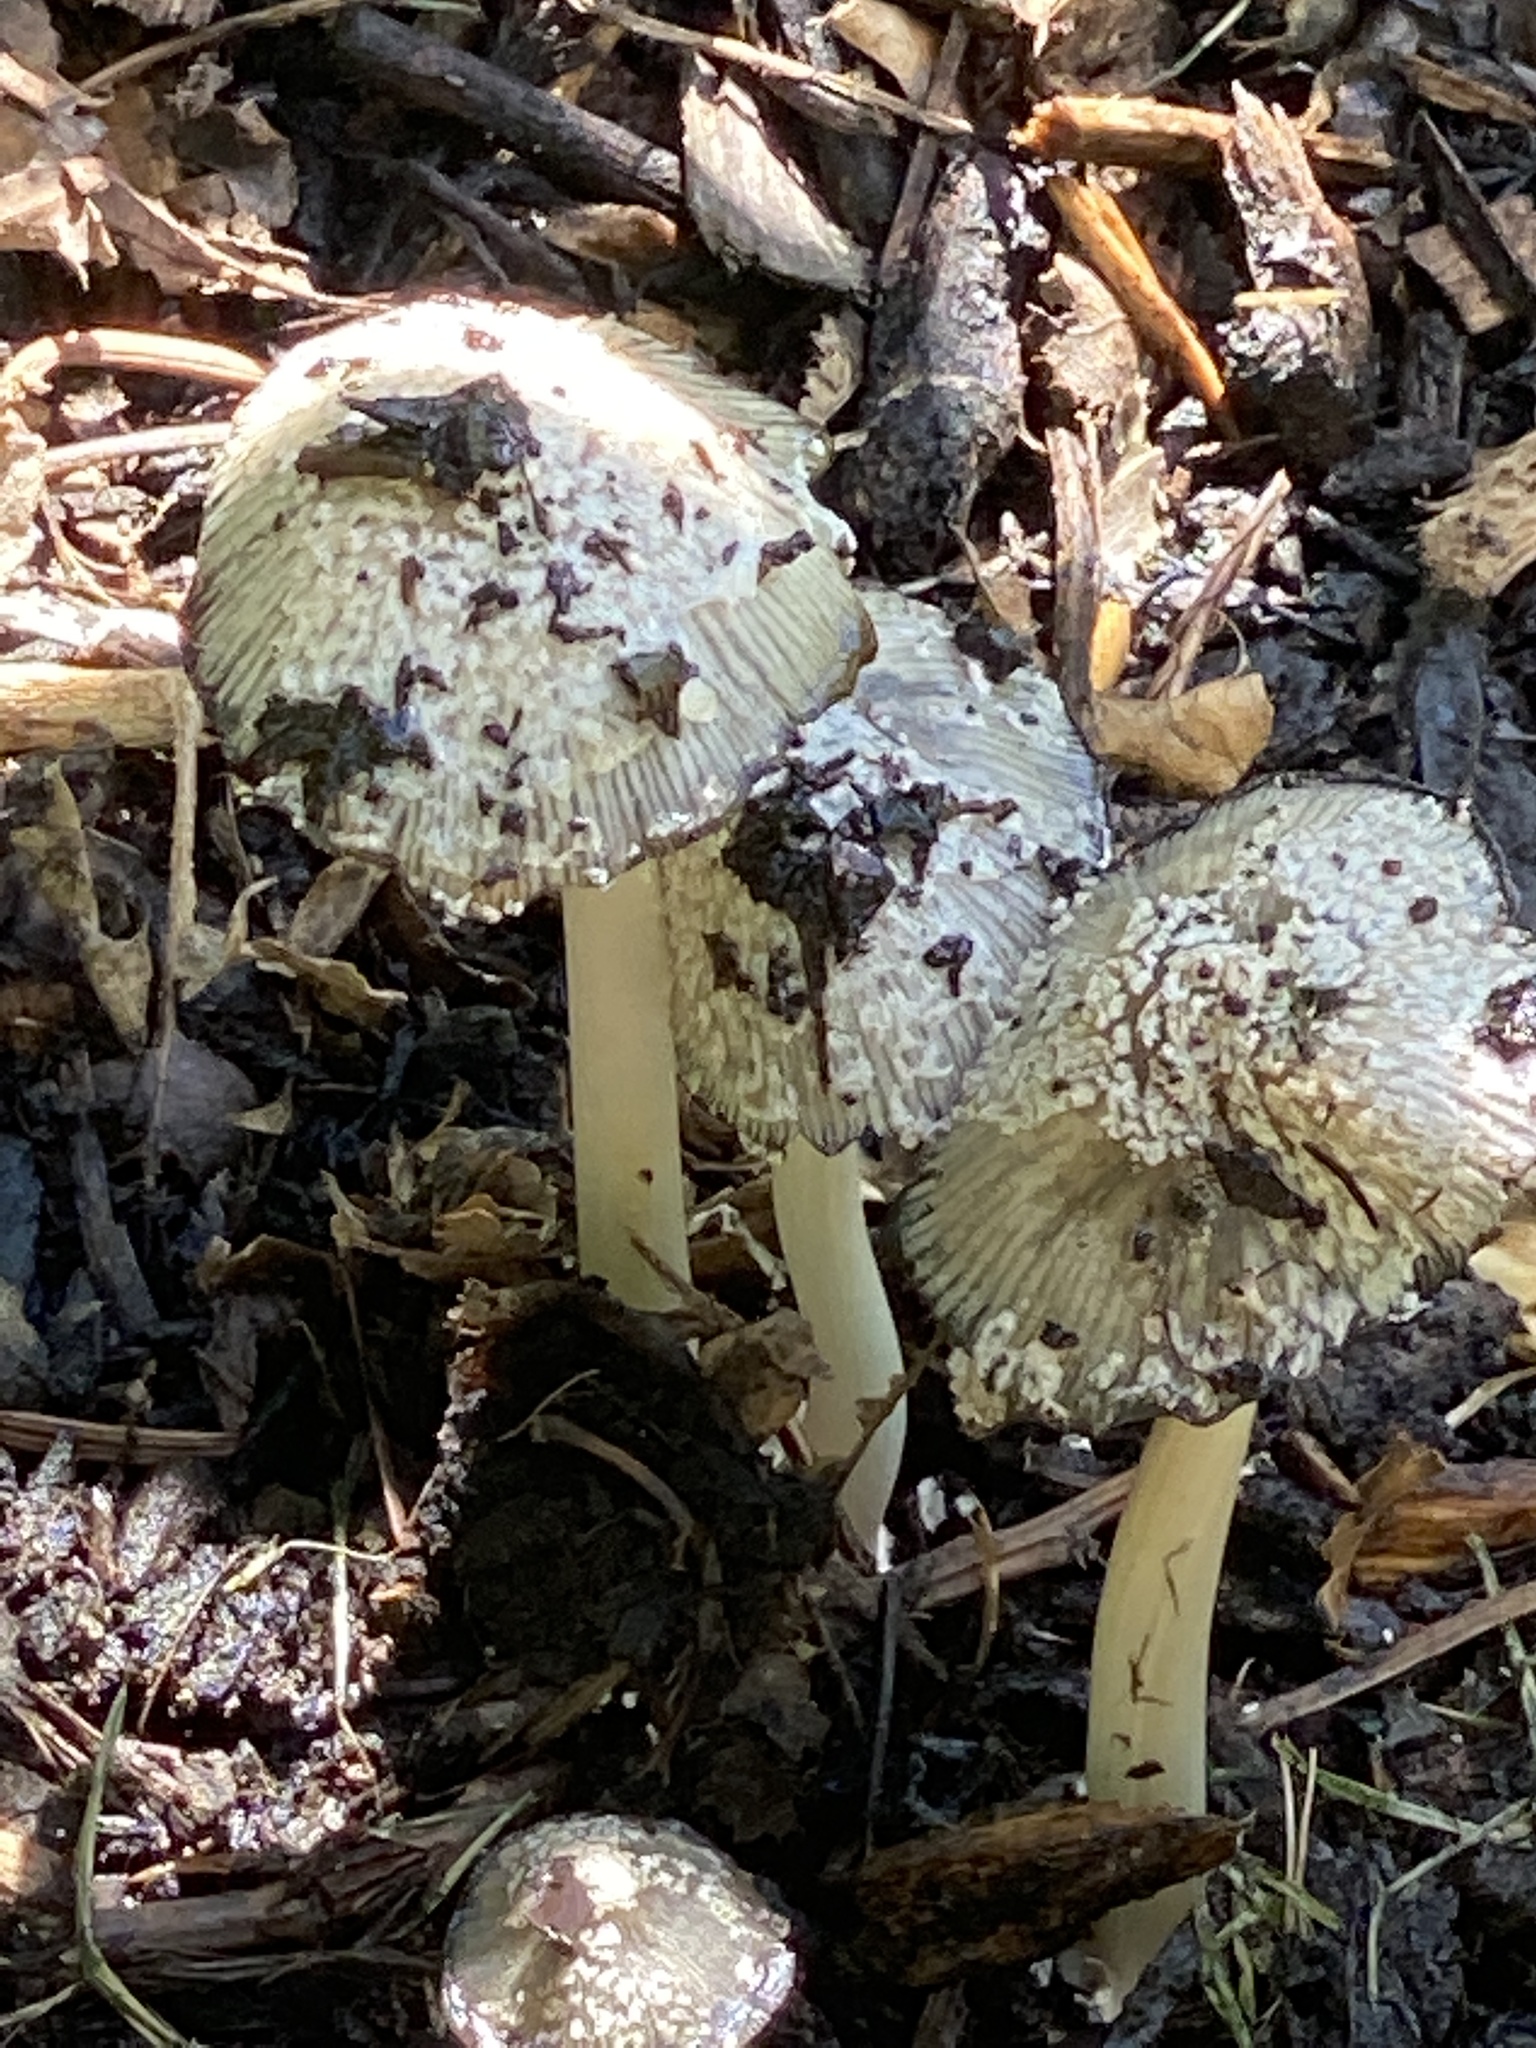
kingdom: Fungi
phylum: Basidiomycota
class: Agaricomycetes
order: Agaricales
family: Psathyrellaceae
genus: Coprinellus
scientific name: Coprinellus flocculosus
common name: Flocculose inkcap
